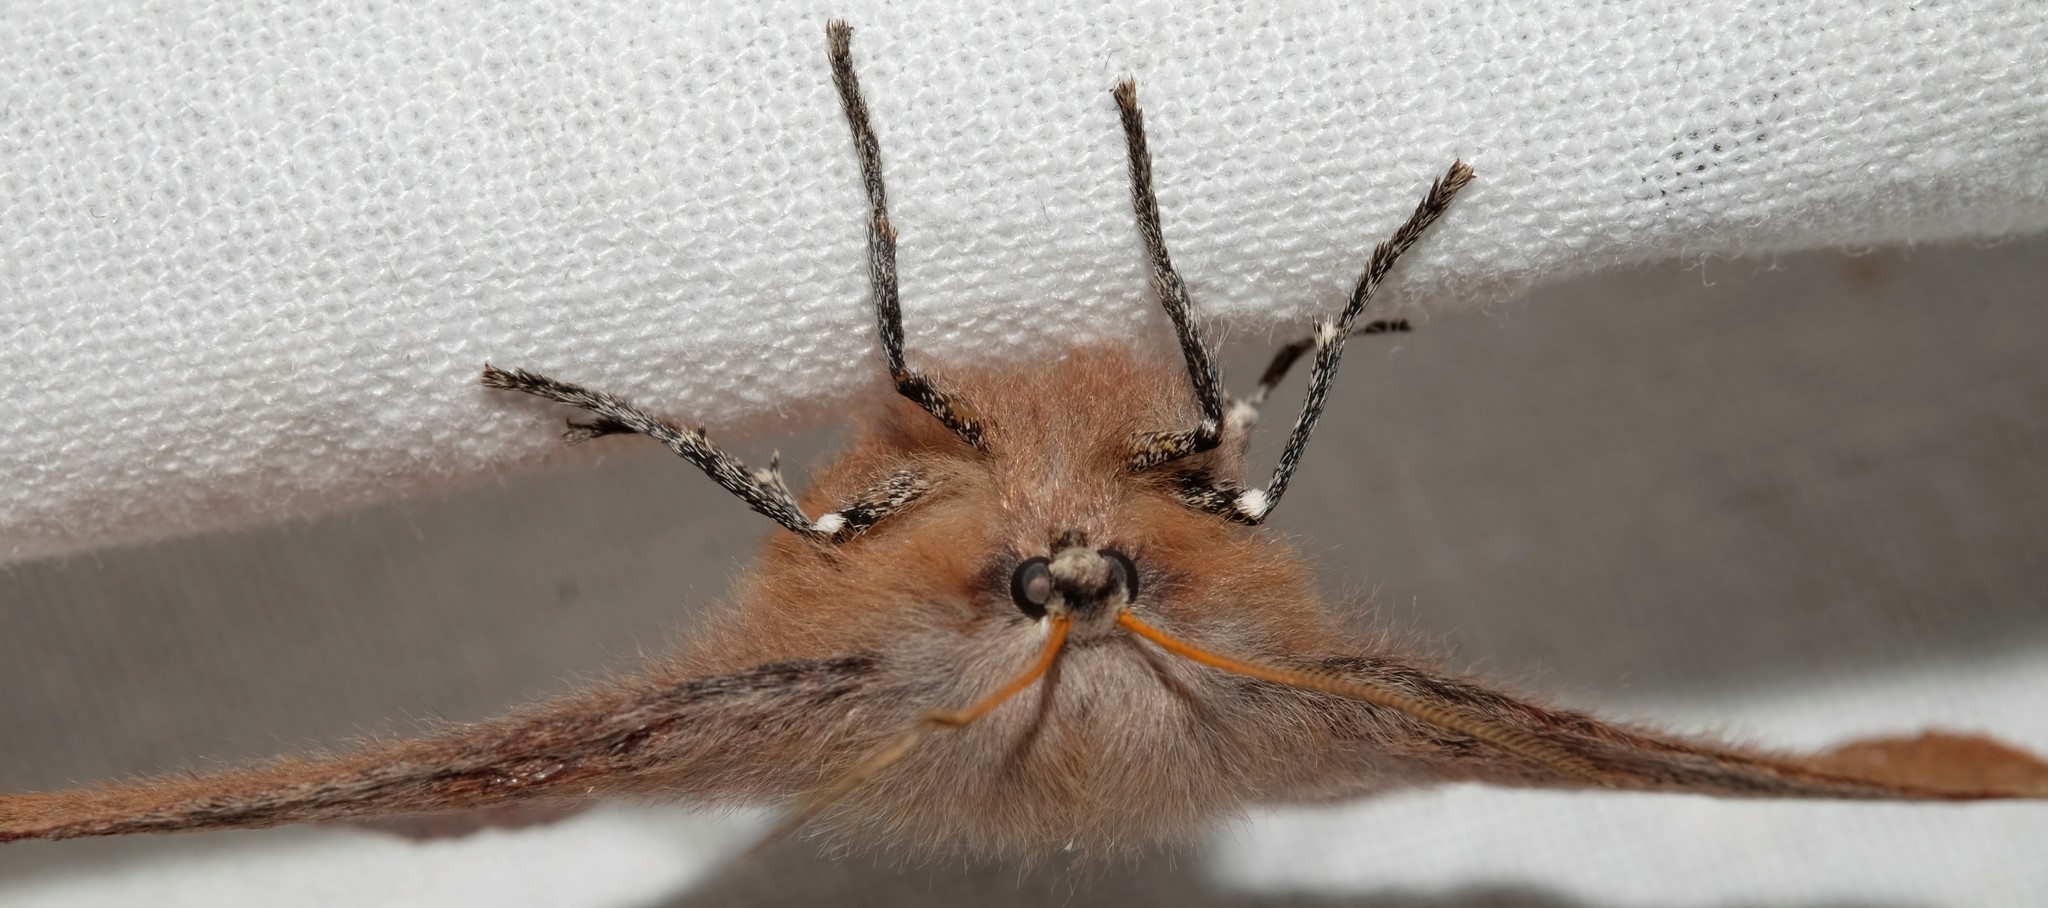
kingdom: Animalia
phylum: Arthropoda
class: Insecta
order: Lepidoptera
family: Anthelidae
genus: Anthela
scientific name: Anthela acuta
